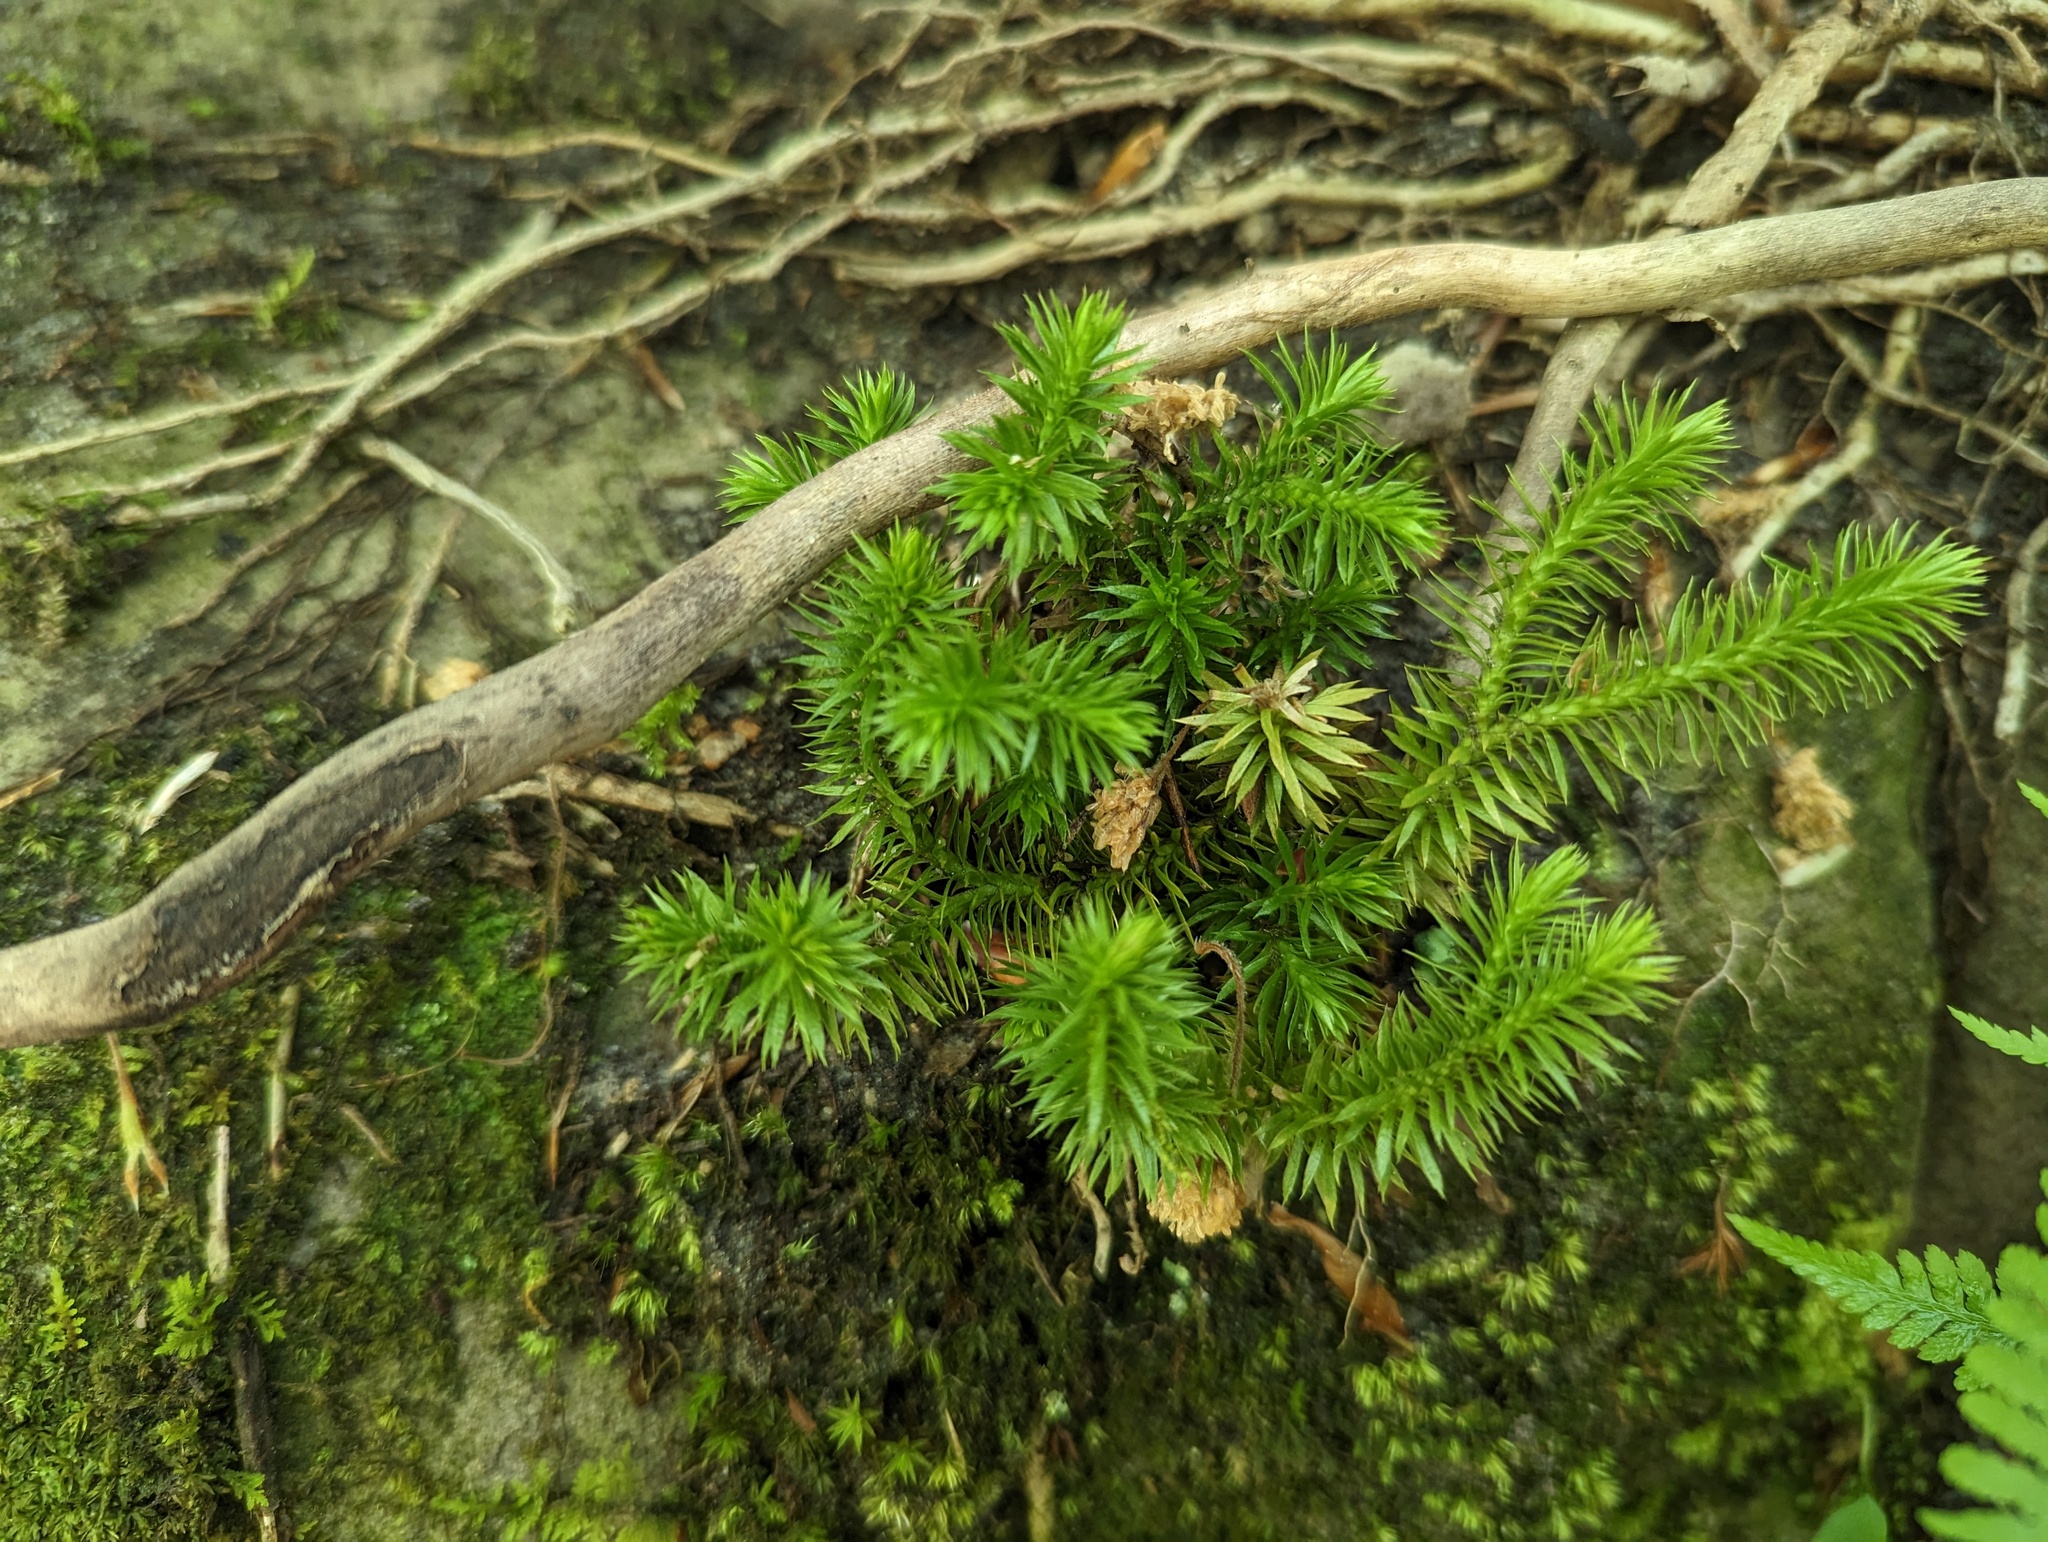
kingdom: Plantae
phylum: Tracheophyta
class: Lycopodiopsida
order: Lycopodiales
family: Lycopodiaceae
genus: Huperzia
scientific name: Huperzia porophila
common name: Rock clubmoss
